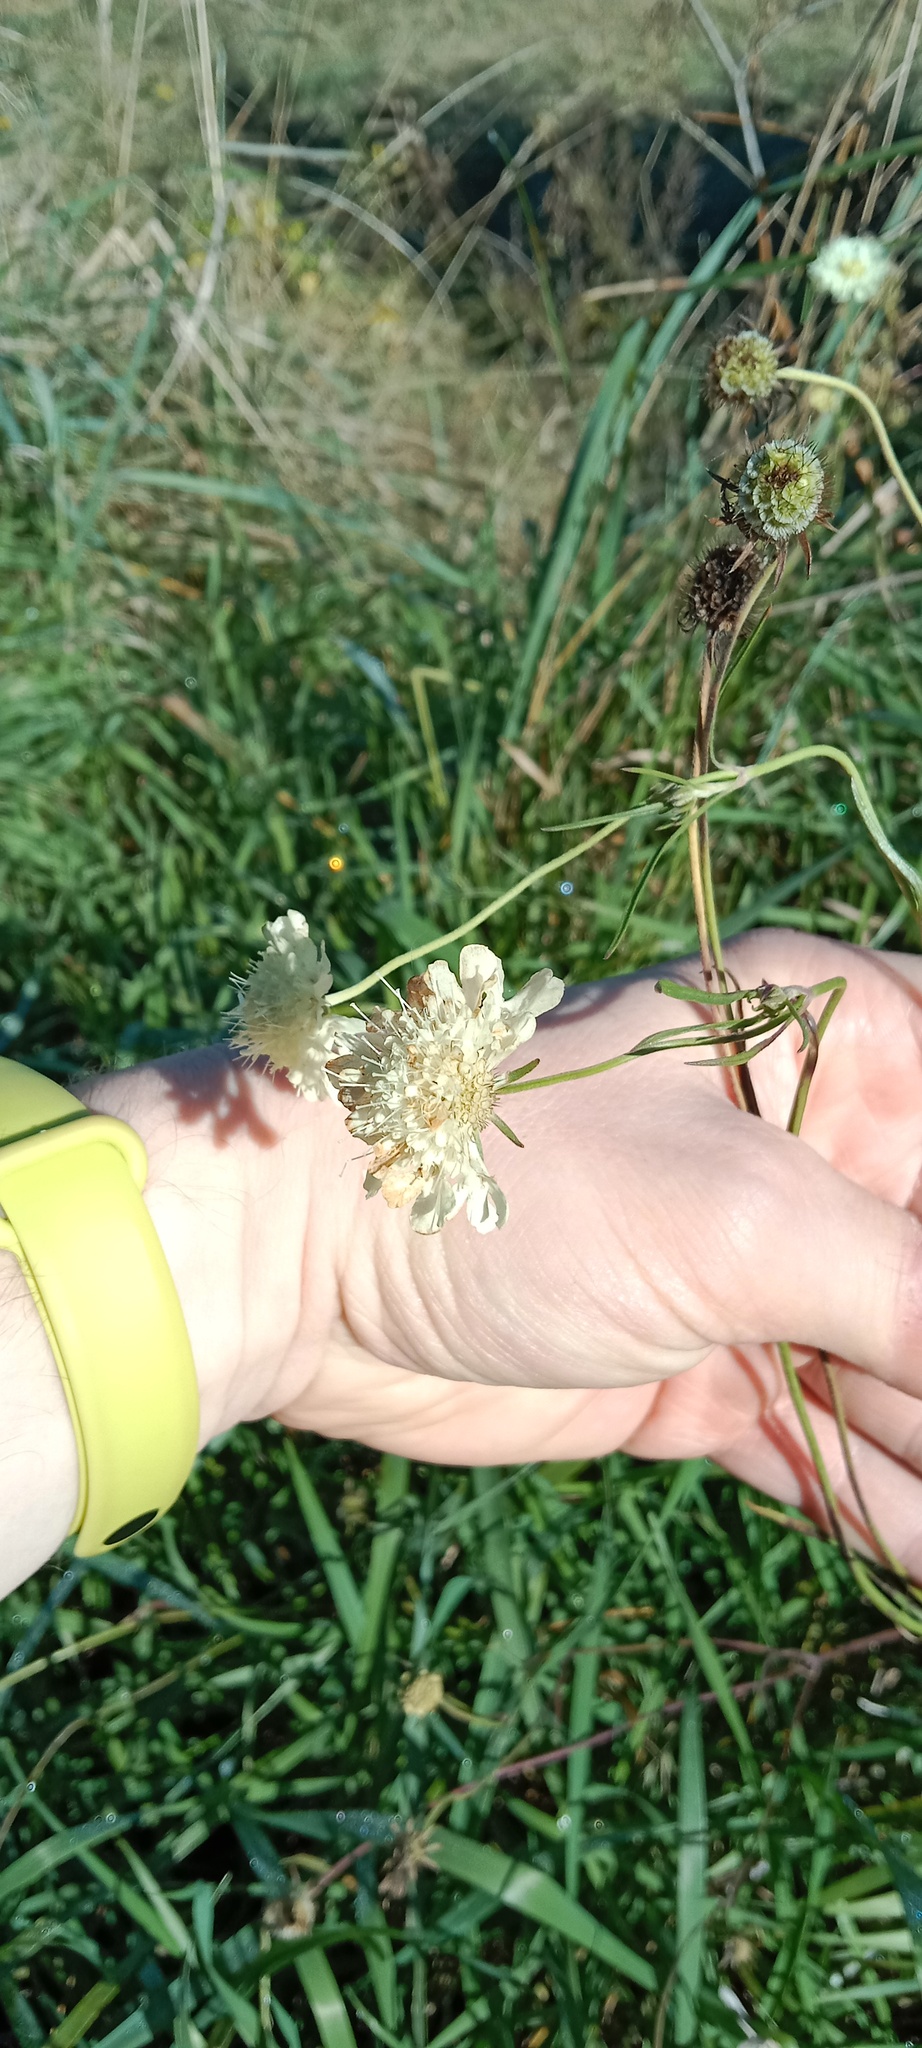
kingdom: Plantae
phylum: Tracheophyta
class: Magnoliopsida
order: Dipsacales
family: Caprifoliaceae
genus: Scabiosa
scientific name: Scabiosa ochroleuca
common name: Cream pincushions
